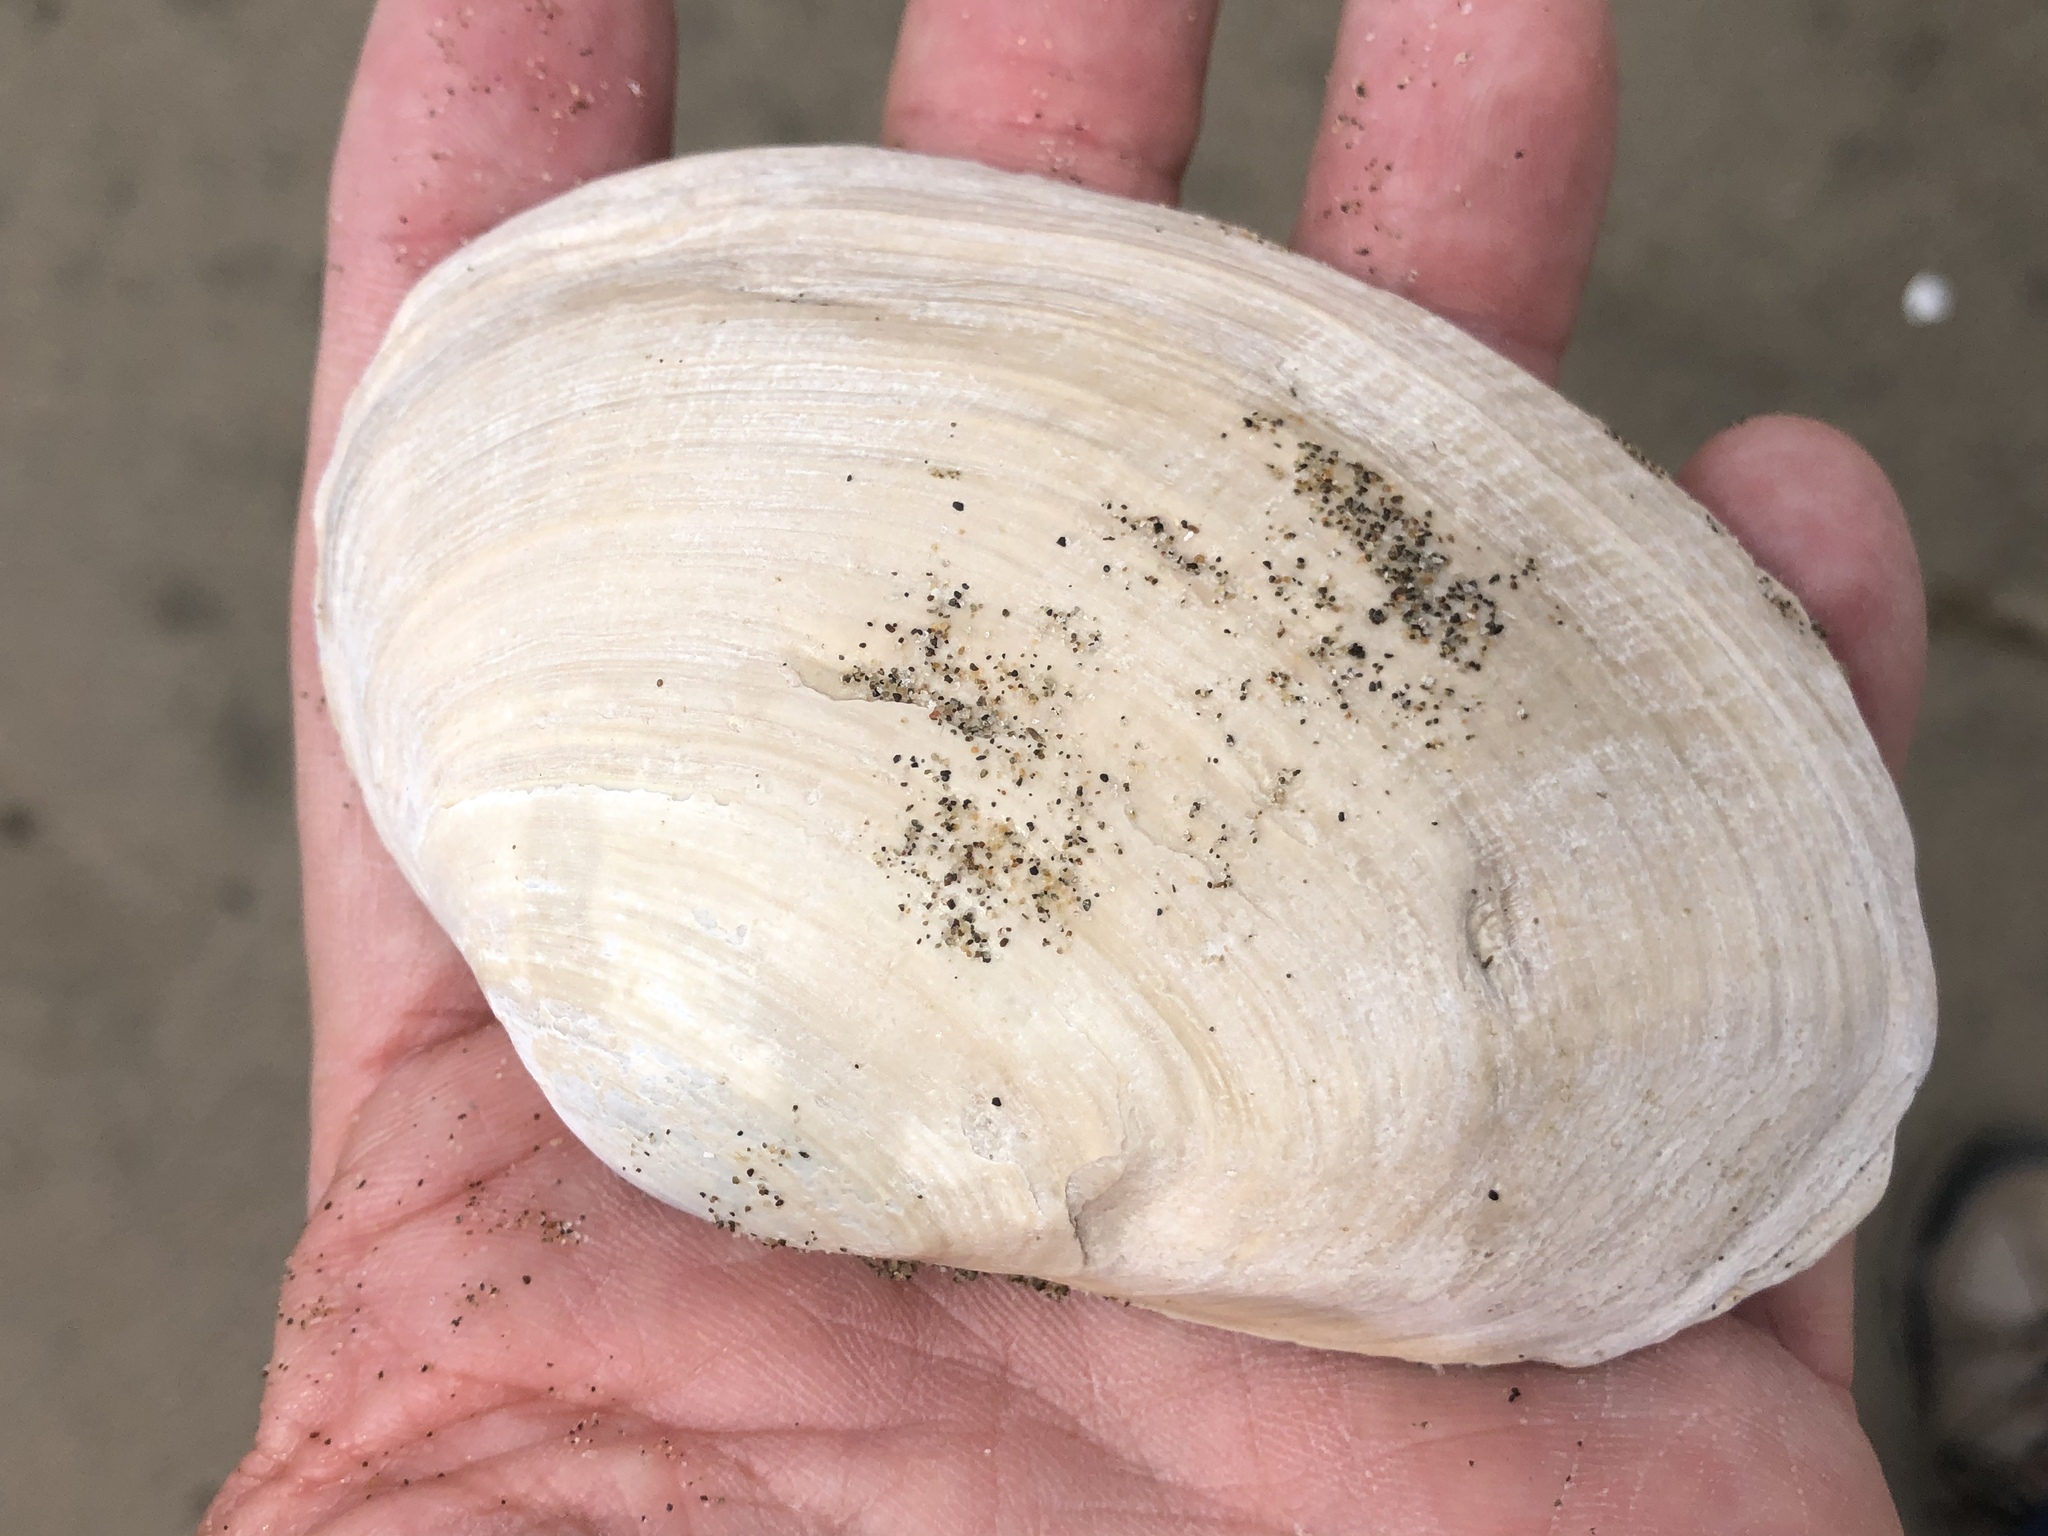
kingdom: Animalia
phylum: Mollusca
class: Bivalvia
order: Venerida
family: Mactridae
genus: Tresus
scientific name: Tresus nuttallii
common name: Pacific gaper clam
